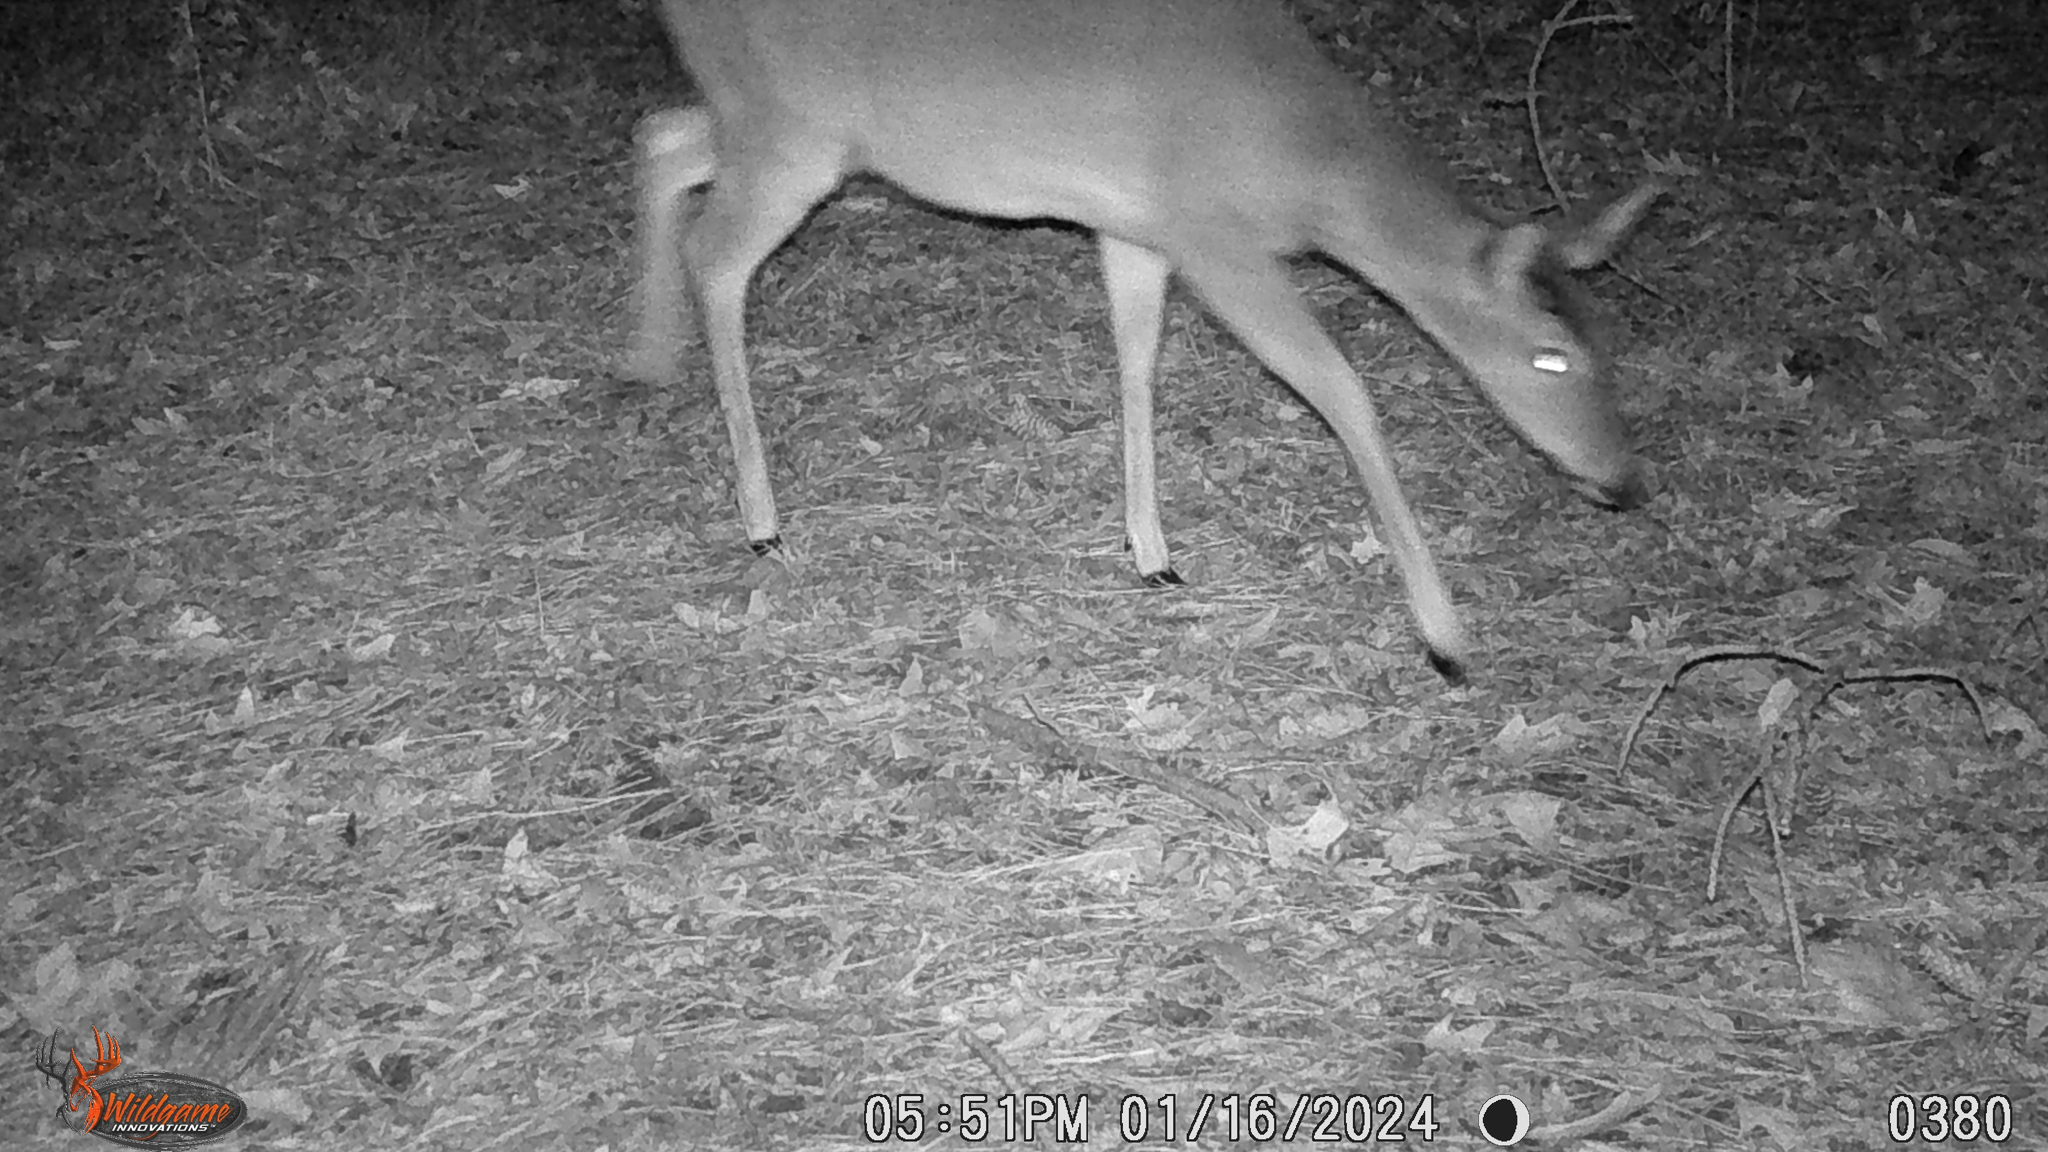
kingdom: Animalia
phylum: Chordata
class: Mammalia
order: Artiodactyla
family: Cervidae
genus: Odocoileus
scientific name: Odocoileus virginianus
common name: White-tailed deer
